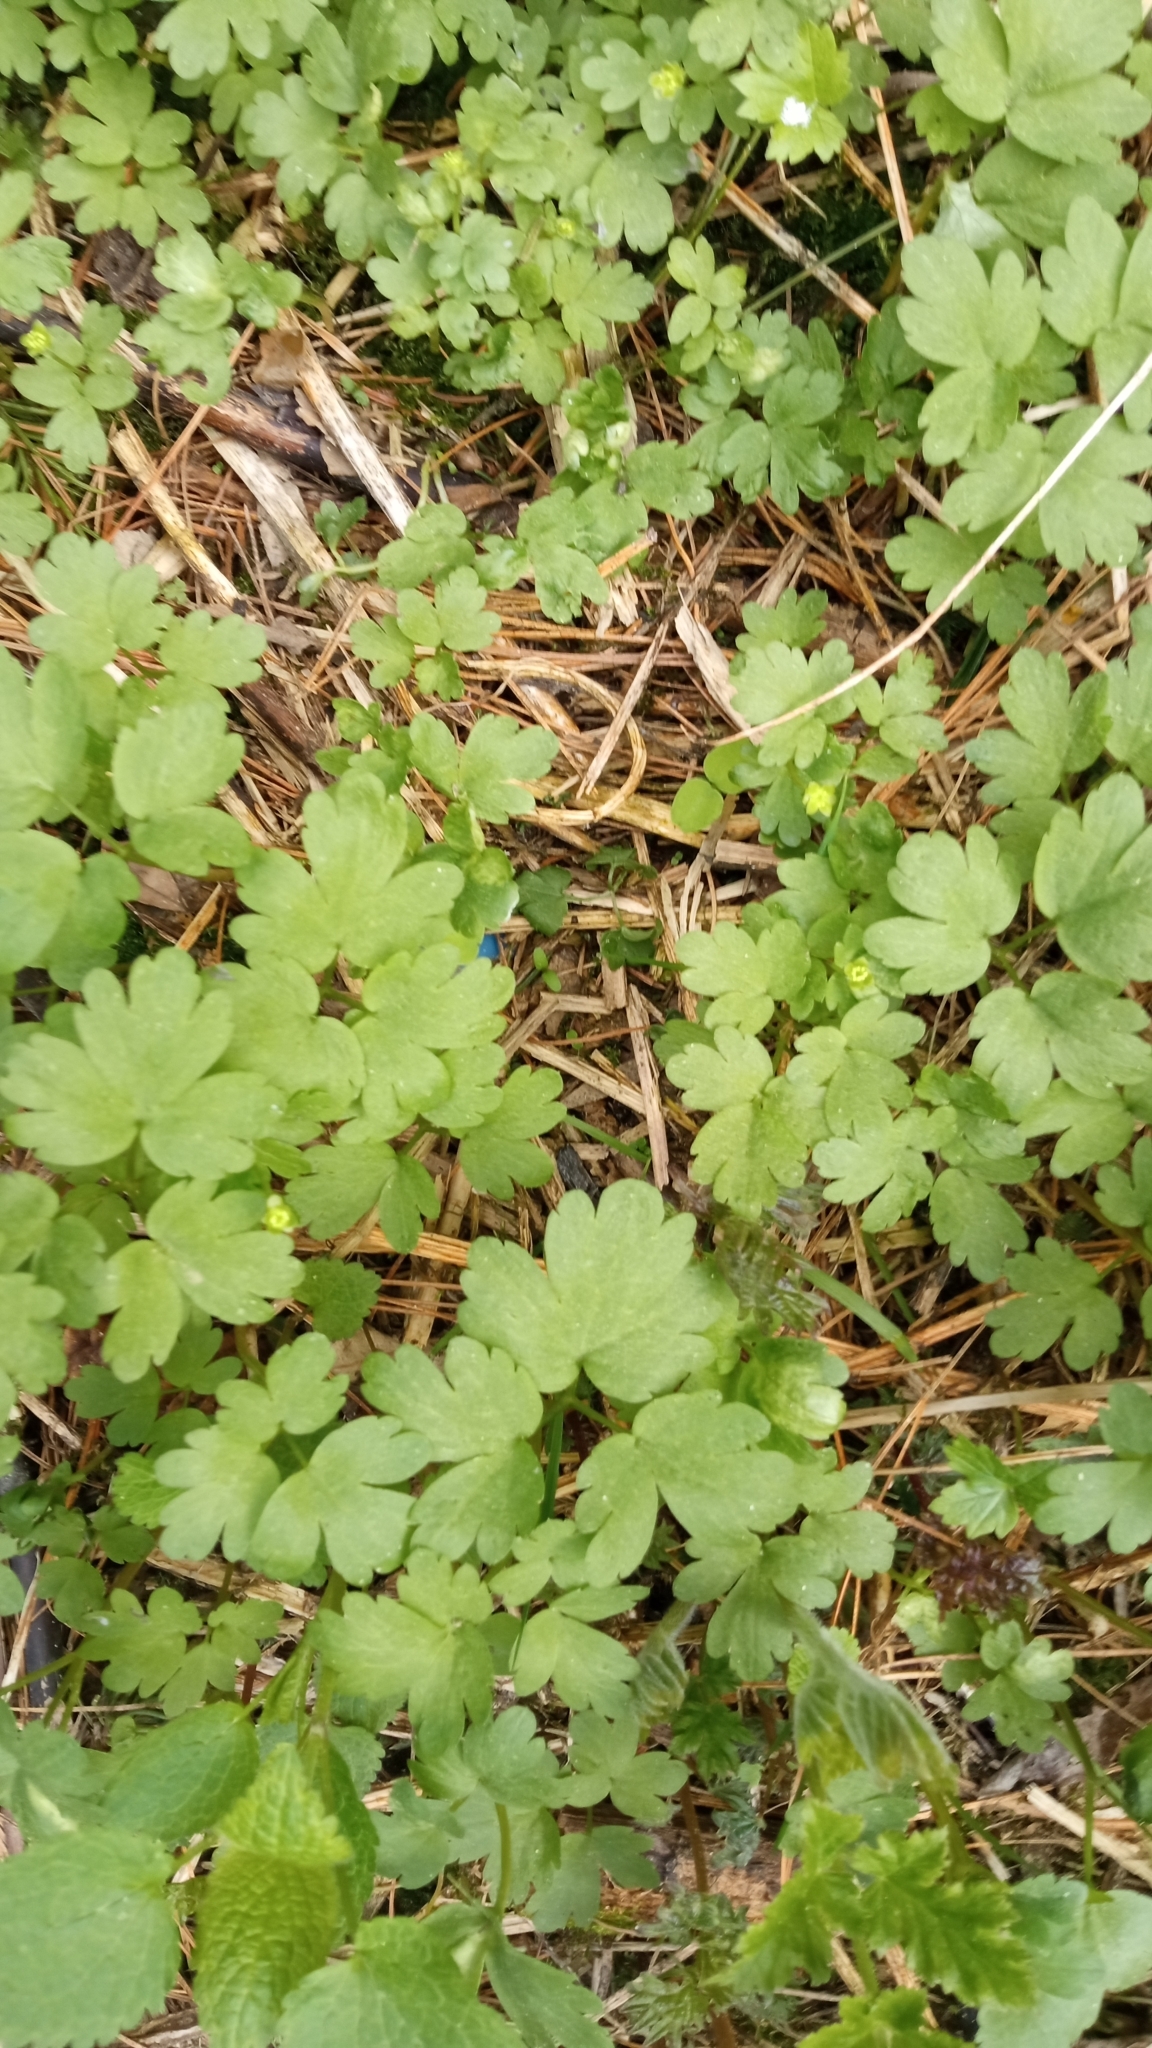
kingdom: Plantae
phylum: Tracheophyta
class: Magnoliopsida
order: Dipsacales
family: Viburnaceae
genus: Adoxa
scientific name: Adoxa moschatellina
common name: Moschatel
